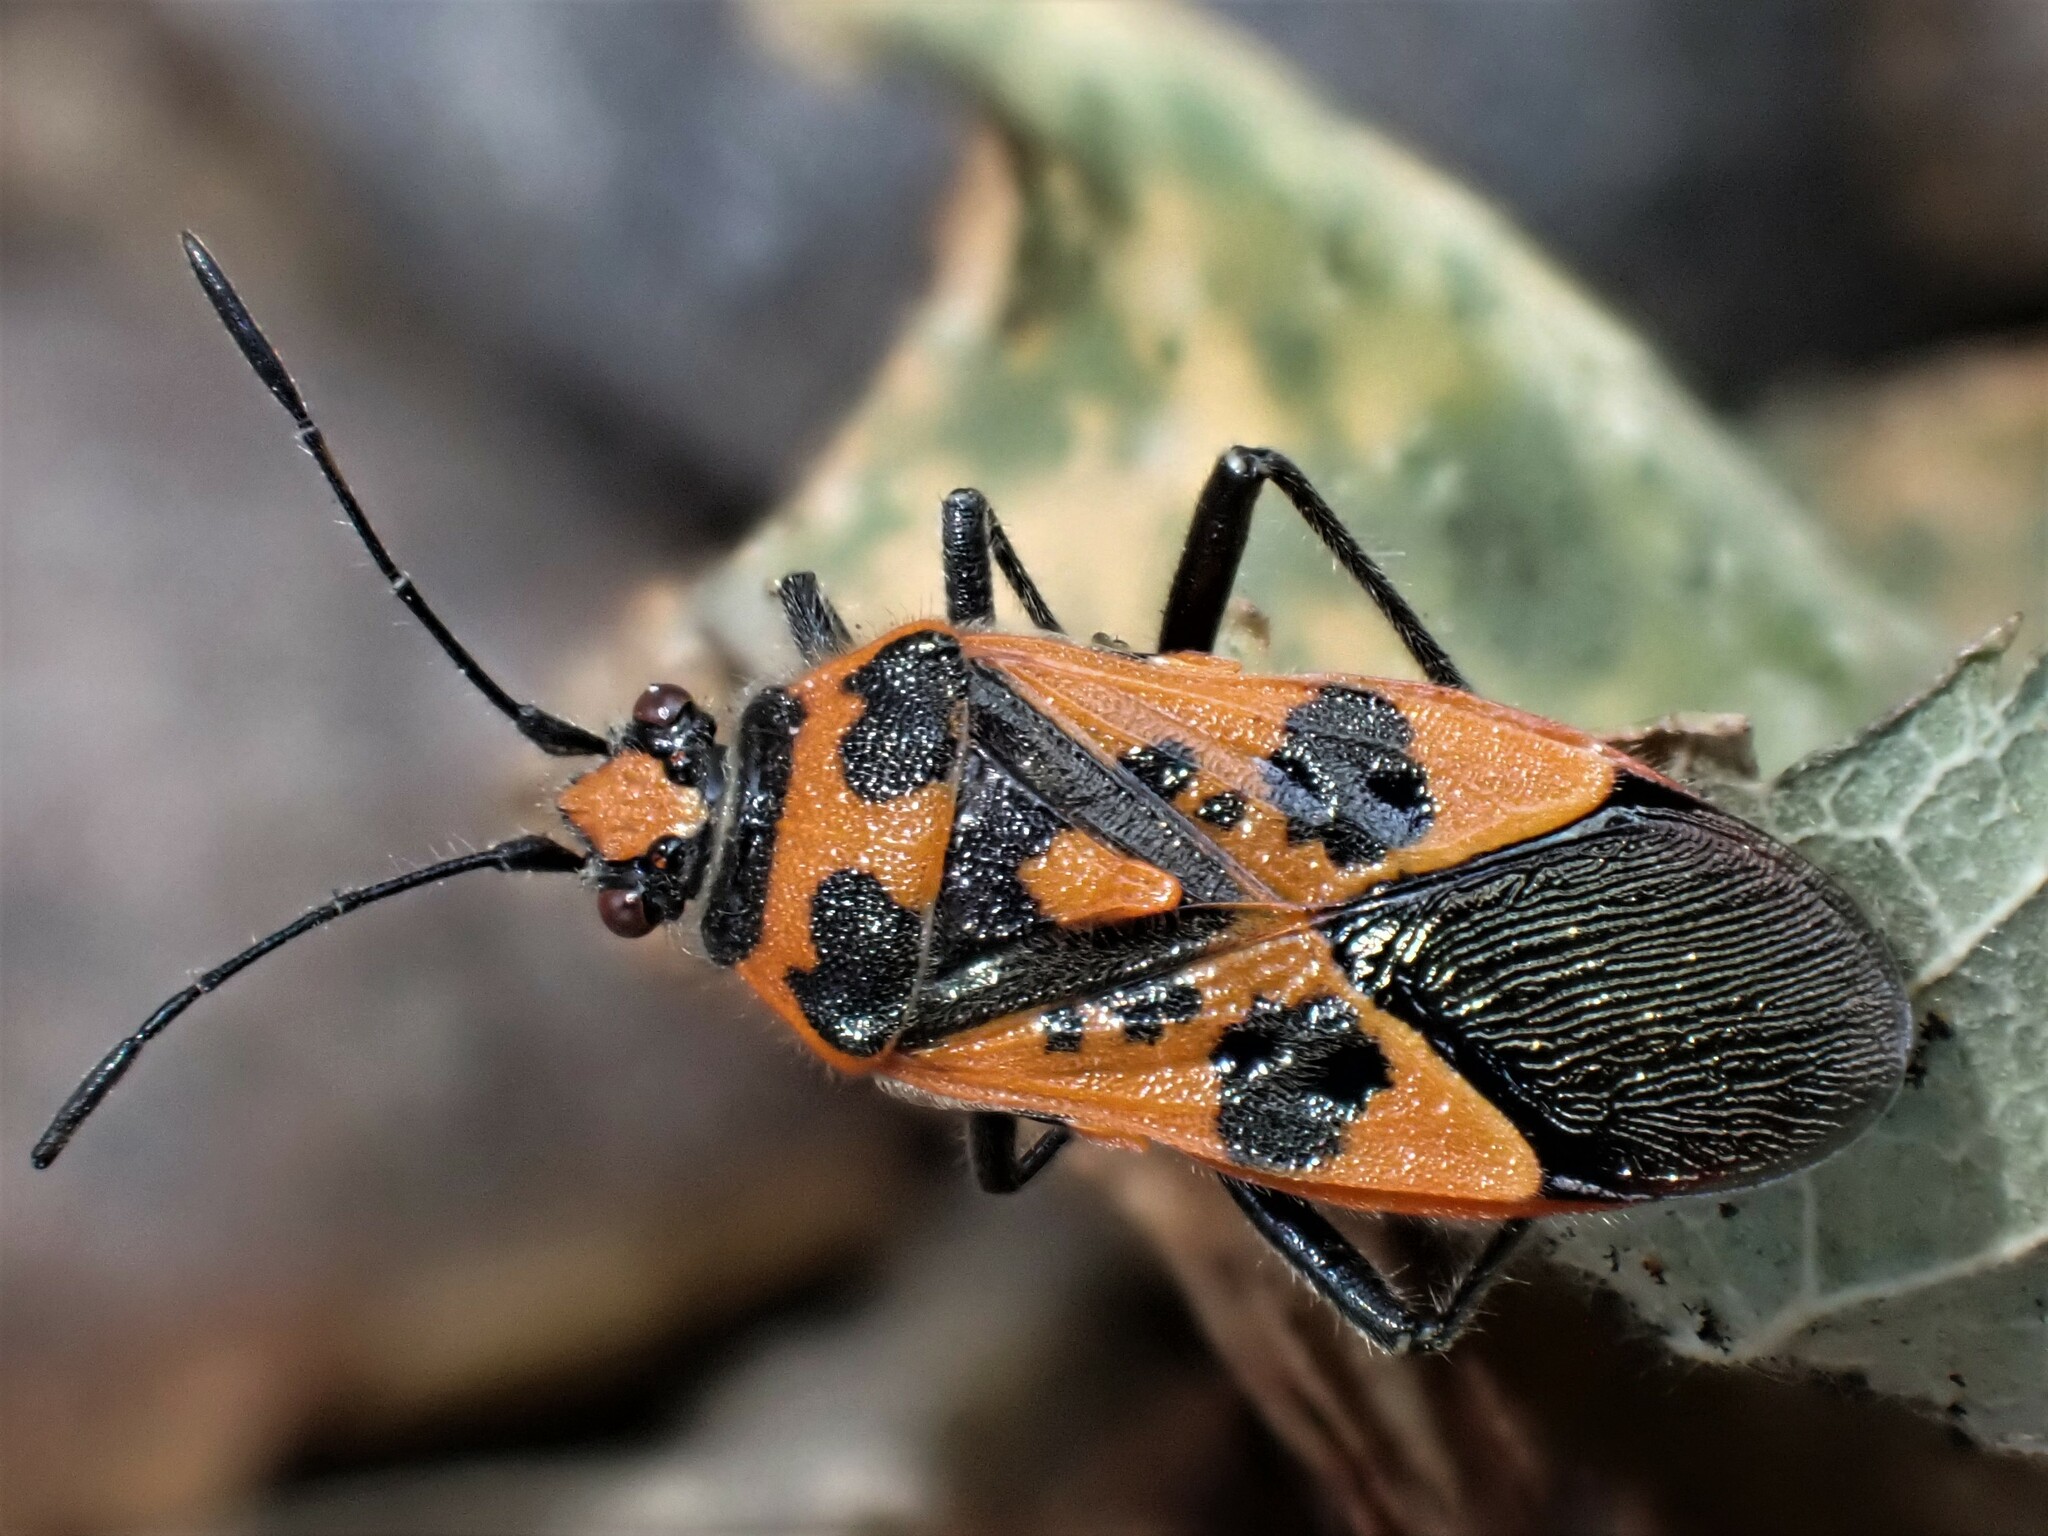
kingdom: Animalia
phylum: Arthropoda
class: Insecta
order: Hemiptera
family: Rhopalidae
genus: Corizus
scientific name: Corizus hyoscyami
